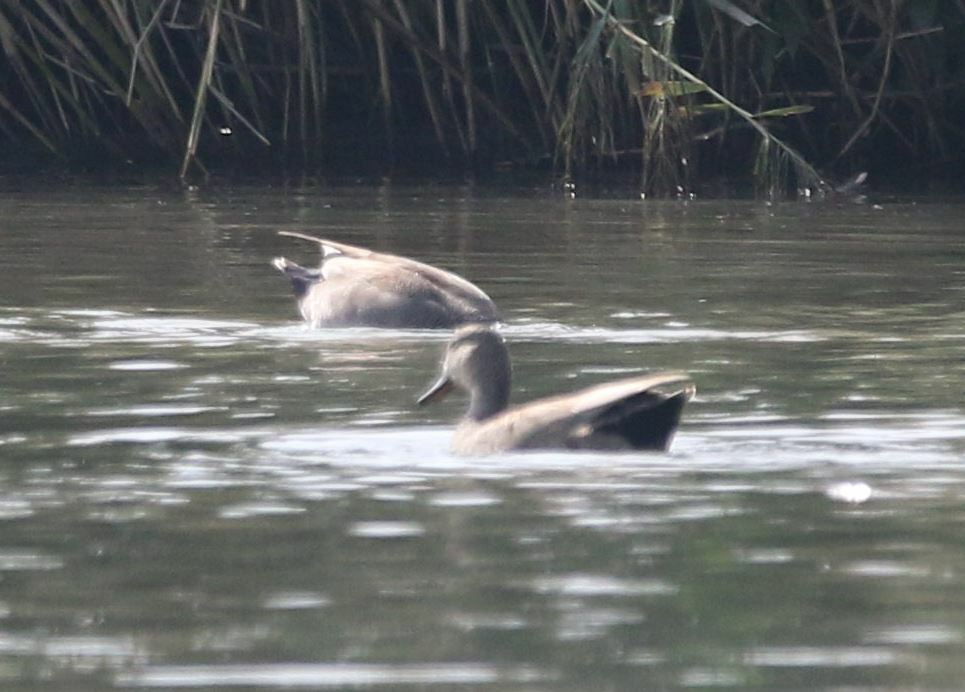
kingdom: Animalia
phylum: Chordata
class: Aves
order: Anseriformes
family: Anatidae
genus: Mareca
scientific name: Mareca strepera
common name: Gadwall
